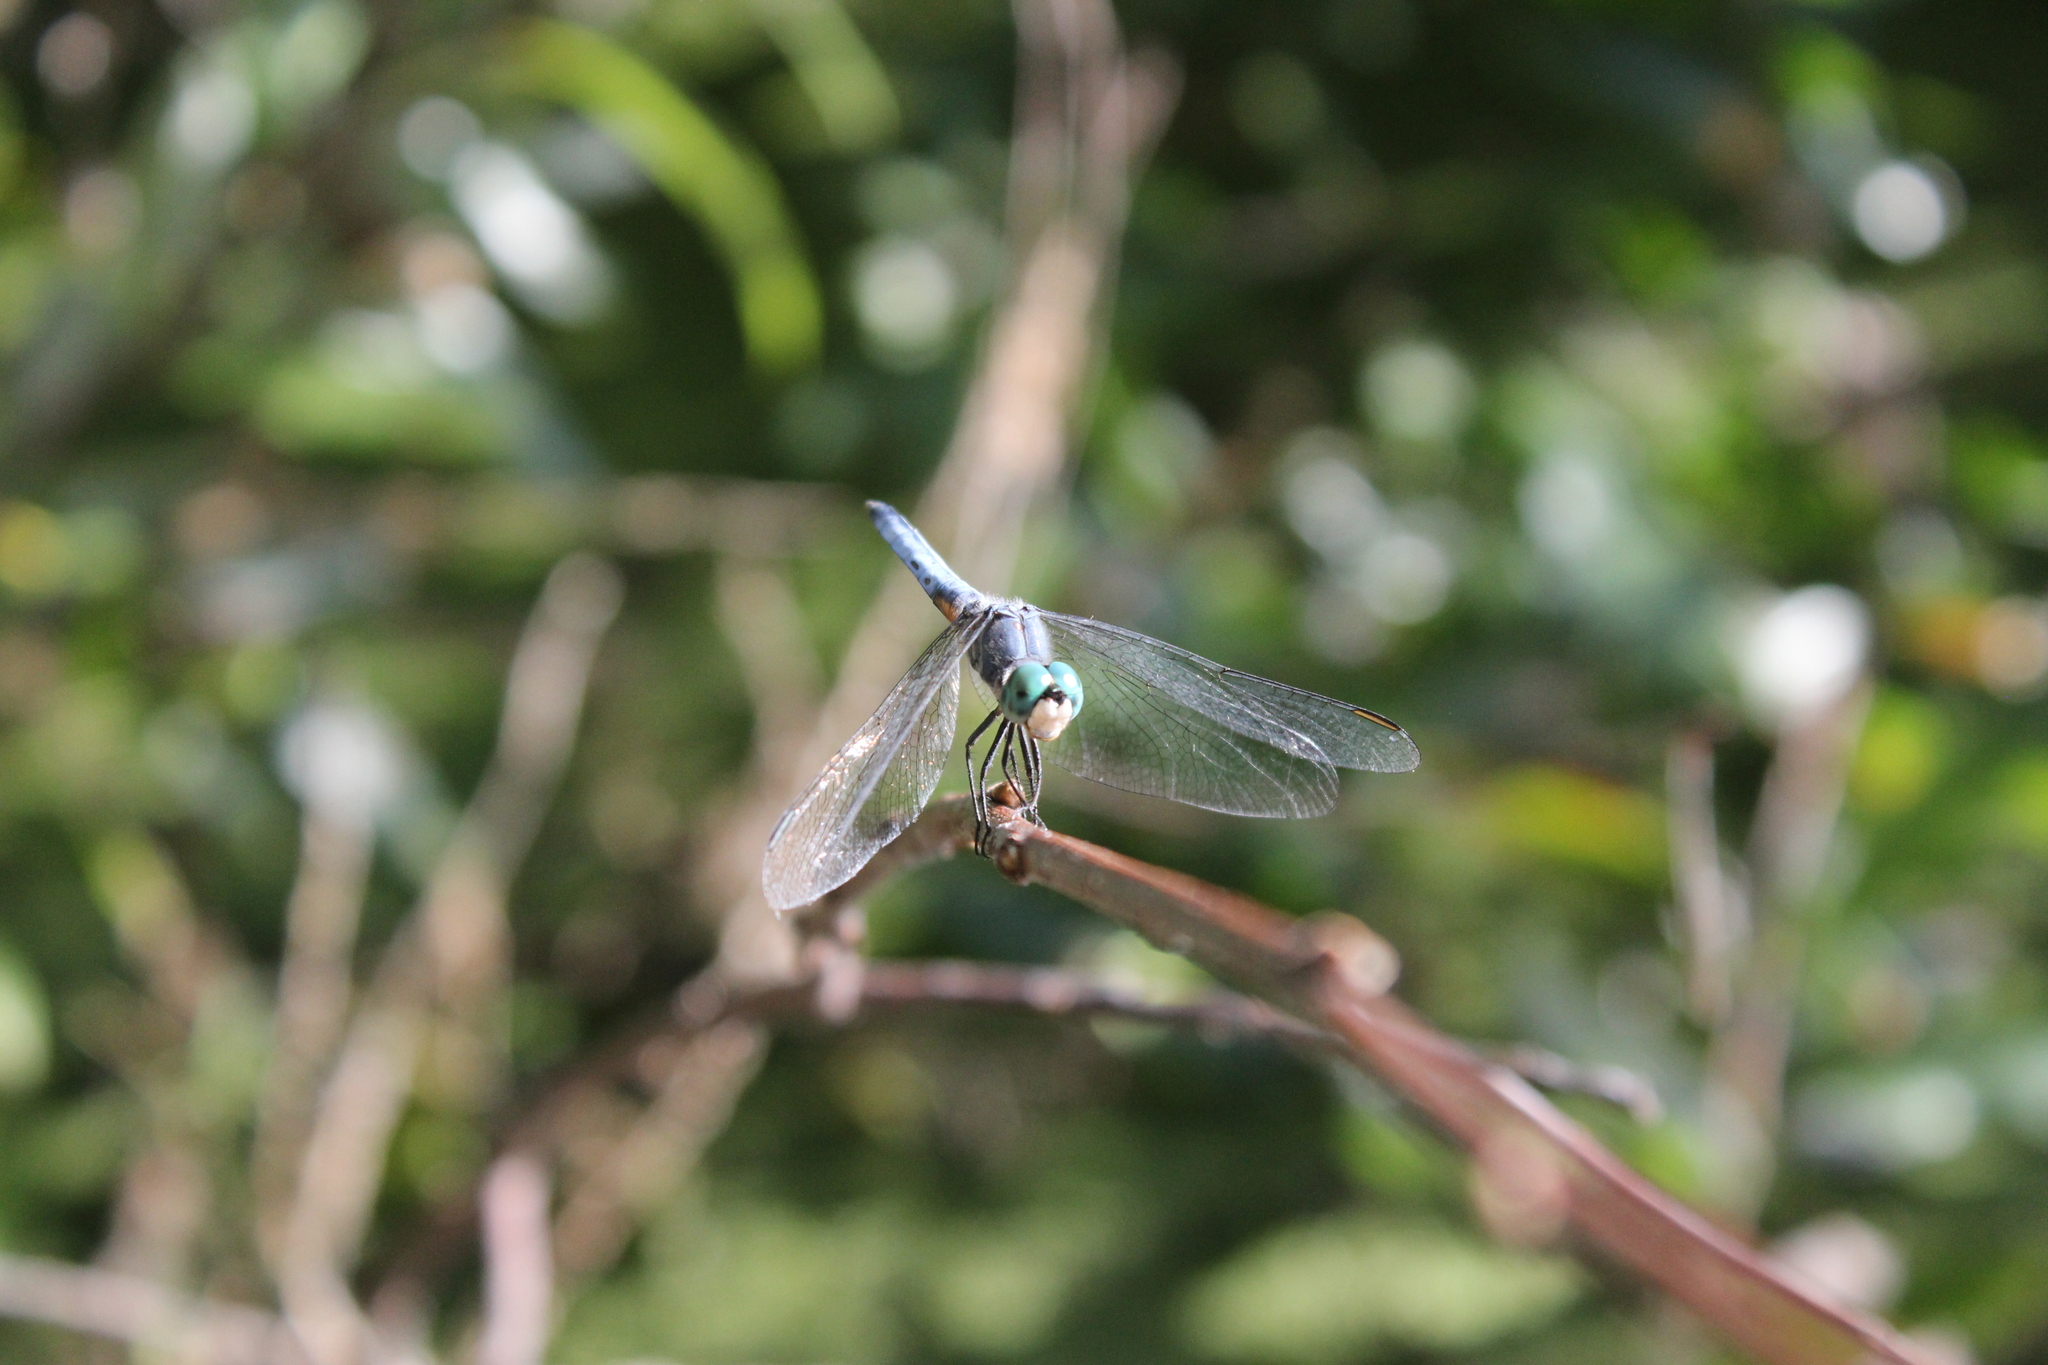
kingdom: Animalia
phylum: Arthropoda
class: Insecta
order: Odonata
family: Libellulidae
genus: Pachydiplax
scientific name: Pachydiplax longipennis
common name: Blue dasher
